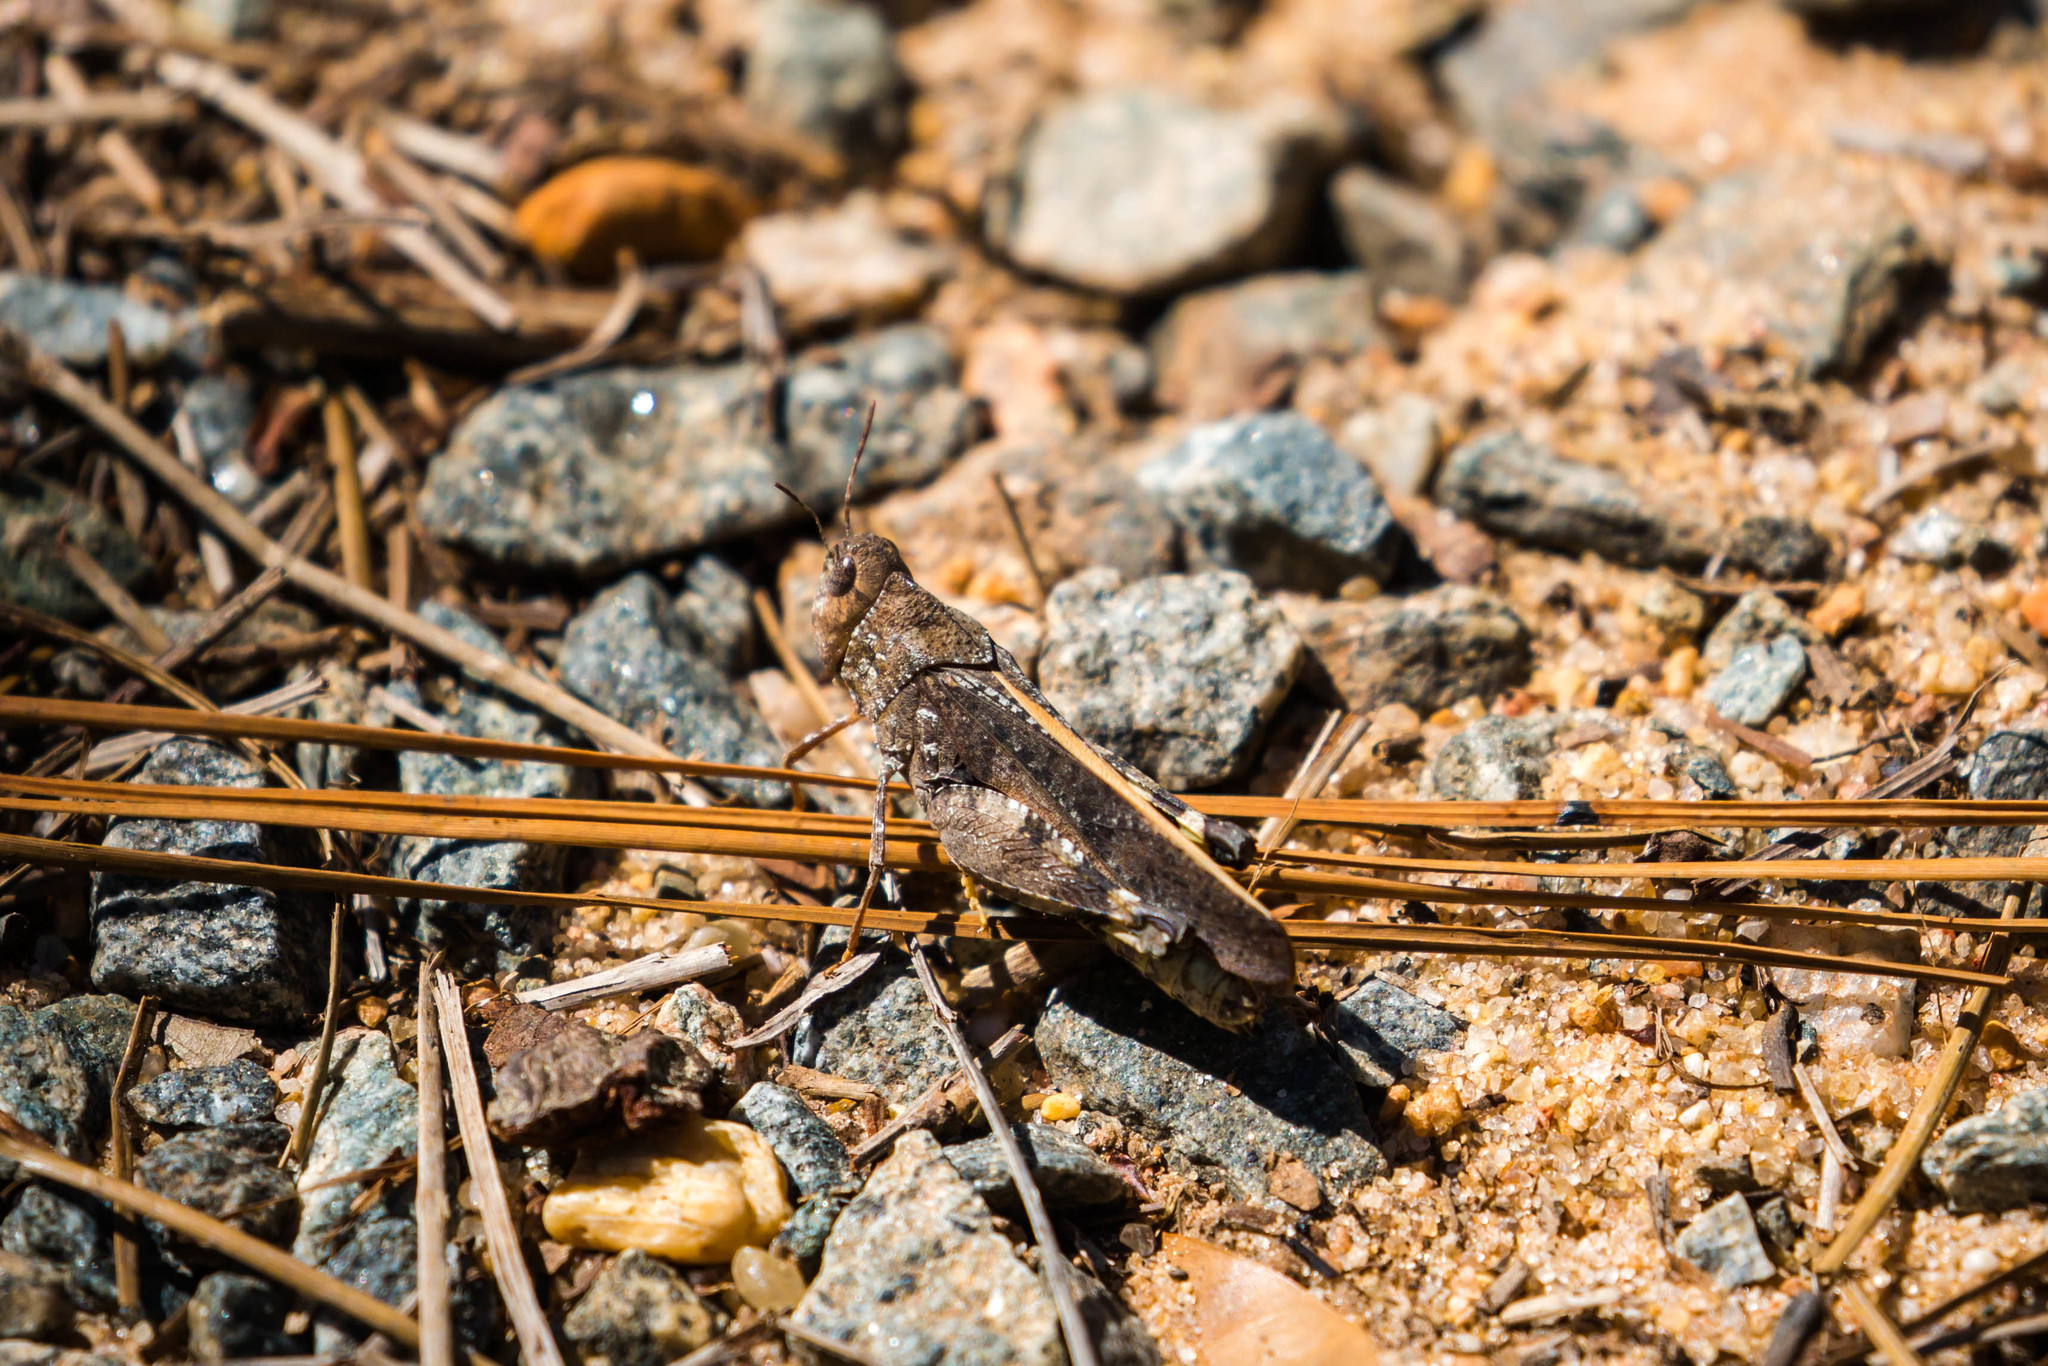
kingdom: Animalia
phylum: Arthropoda
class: Insecta
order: Orthoptera
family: Acrididae
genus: Arphia
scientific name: Arphia granulata
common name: Southern yellow-winged grasshopper
